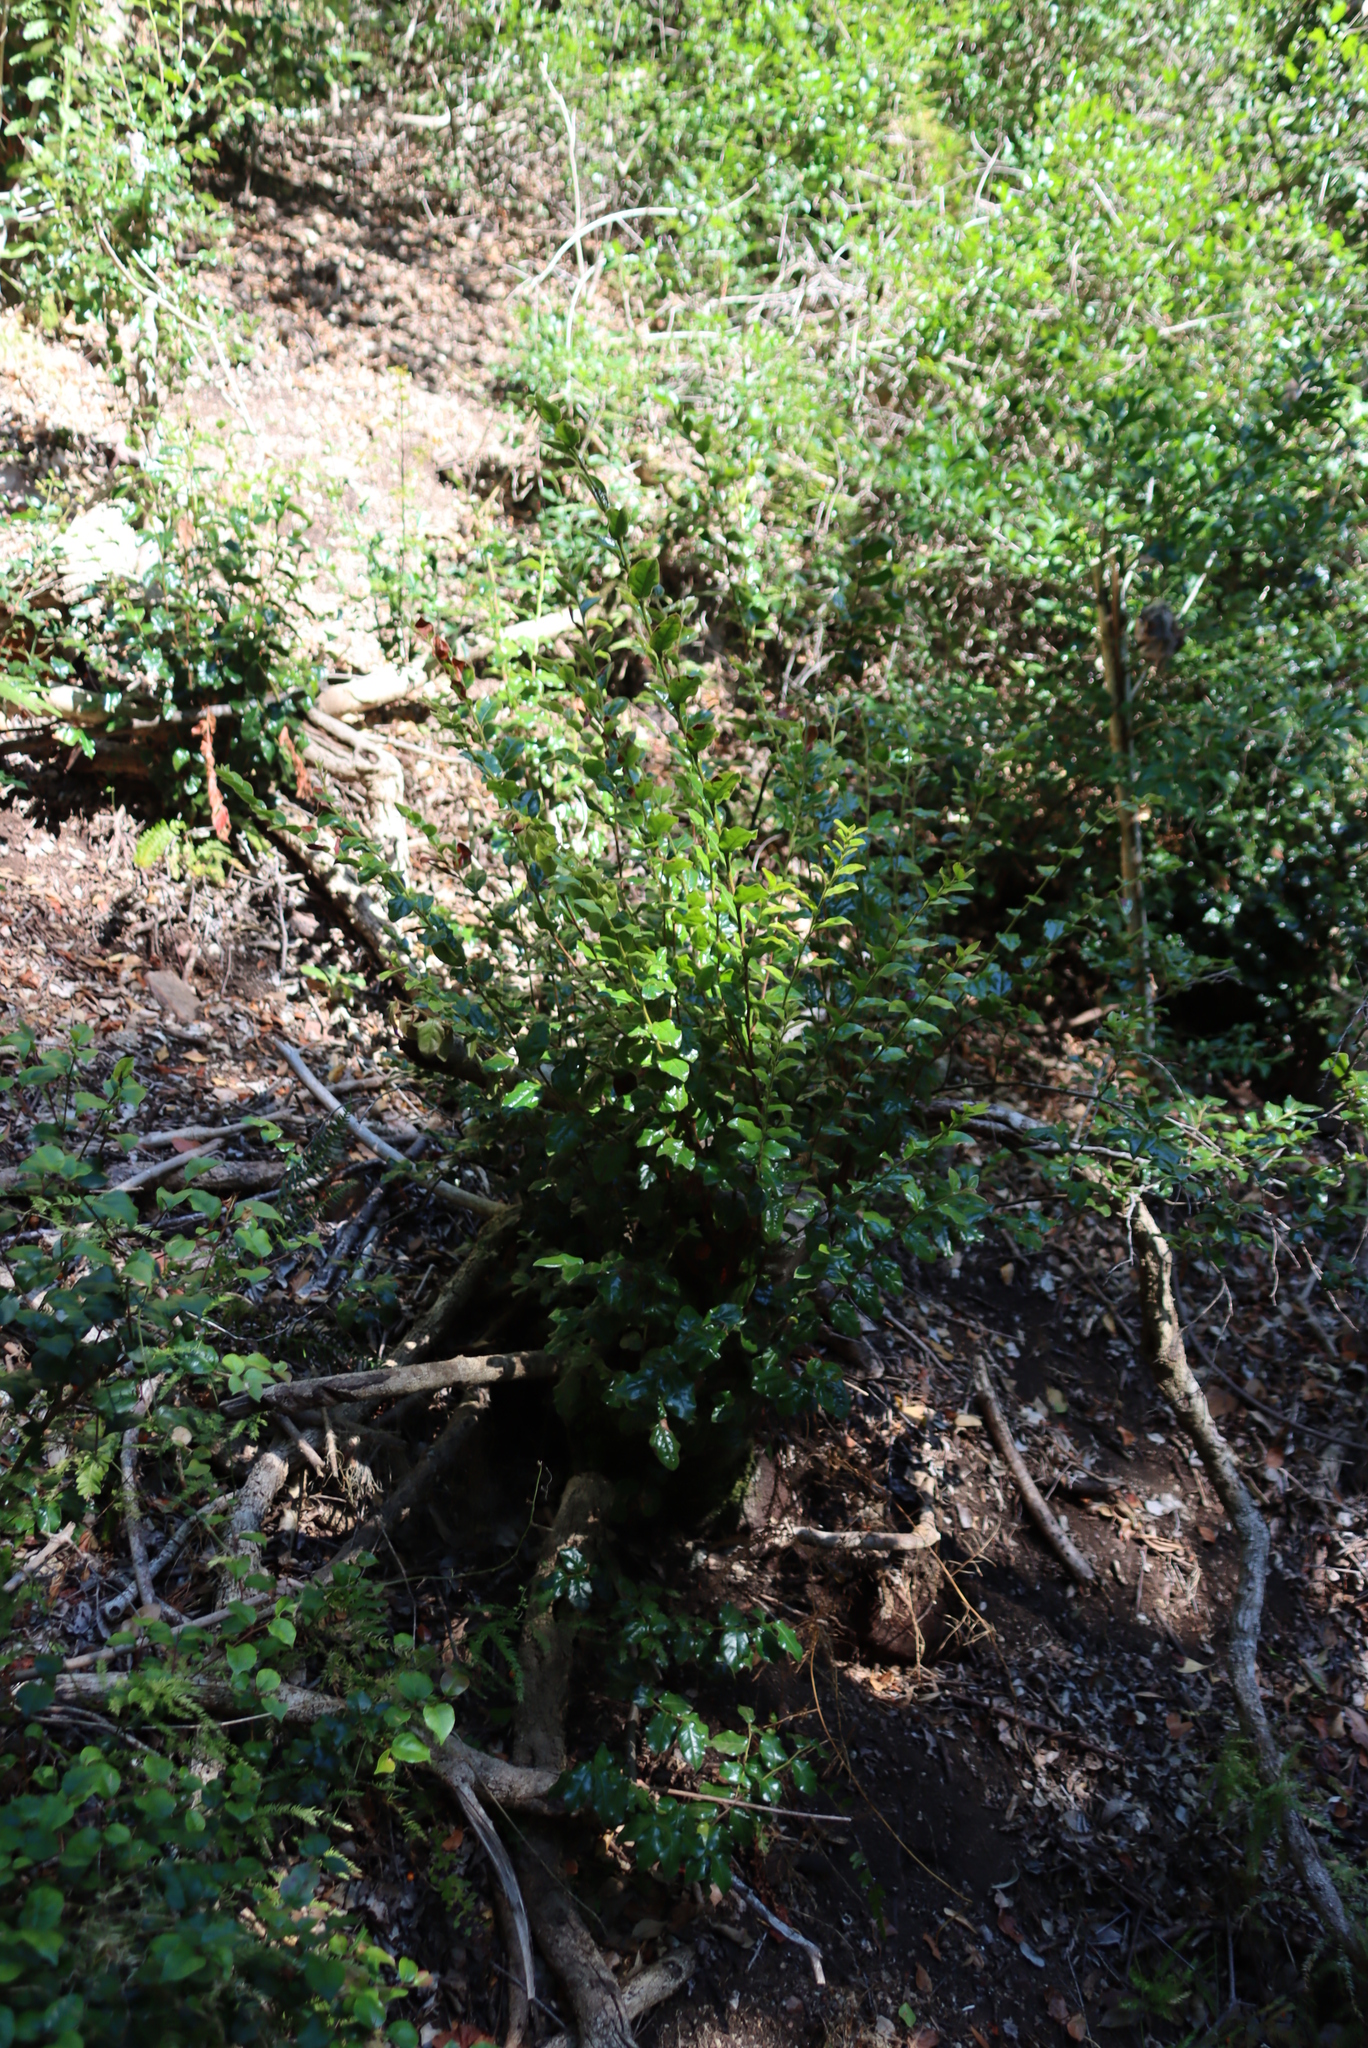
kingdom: Plantae
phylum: Tracheophyta
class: Magnoliopsida
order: Malpighiales
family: Salicaceae
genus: Scolopia
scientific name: Scolopia mundii
